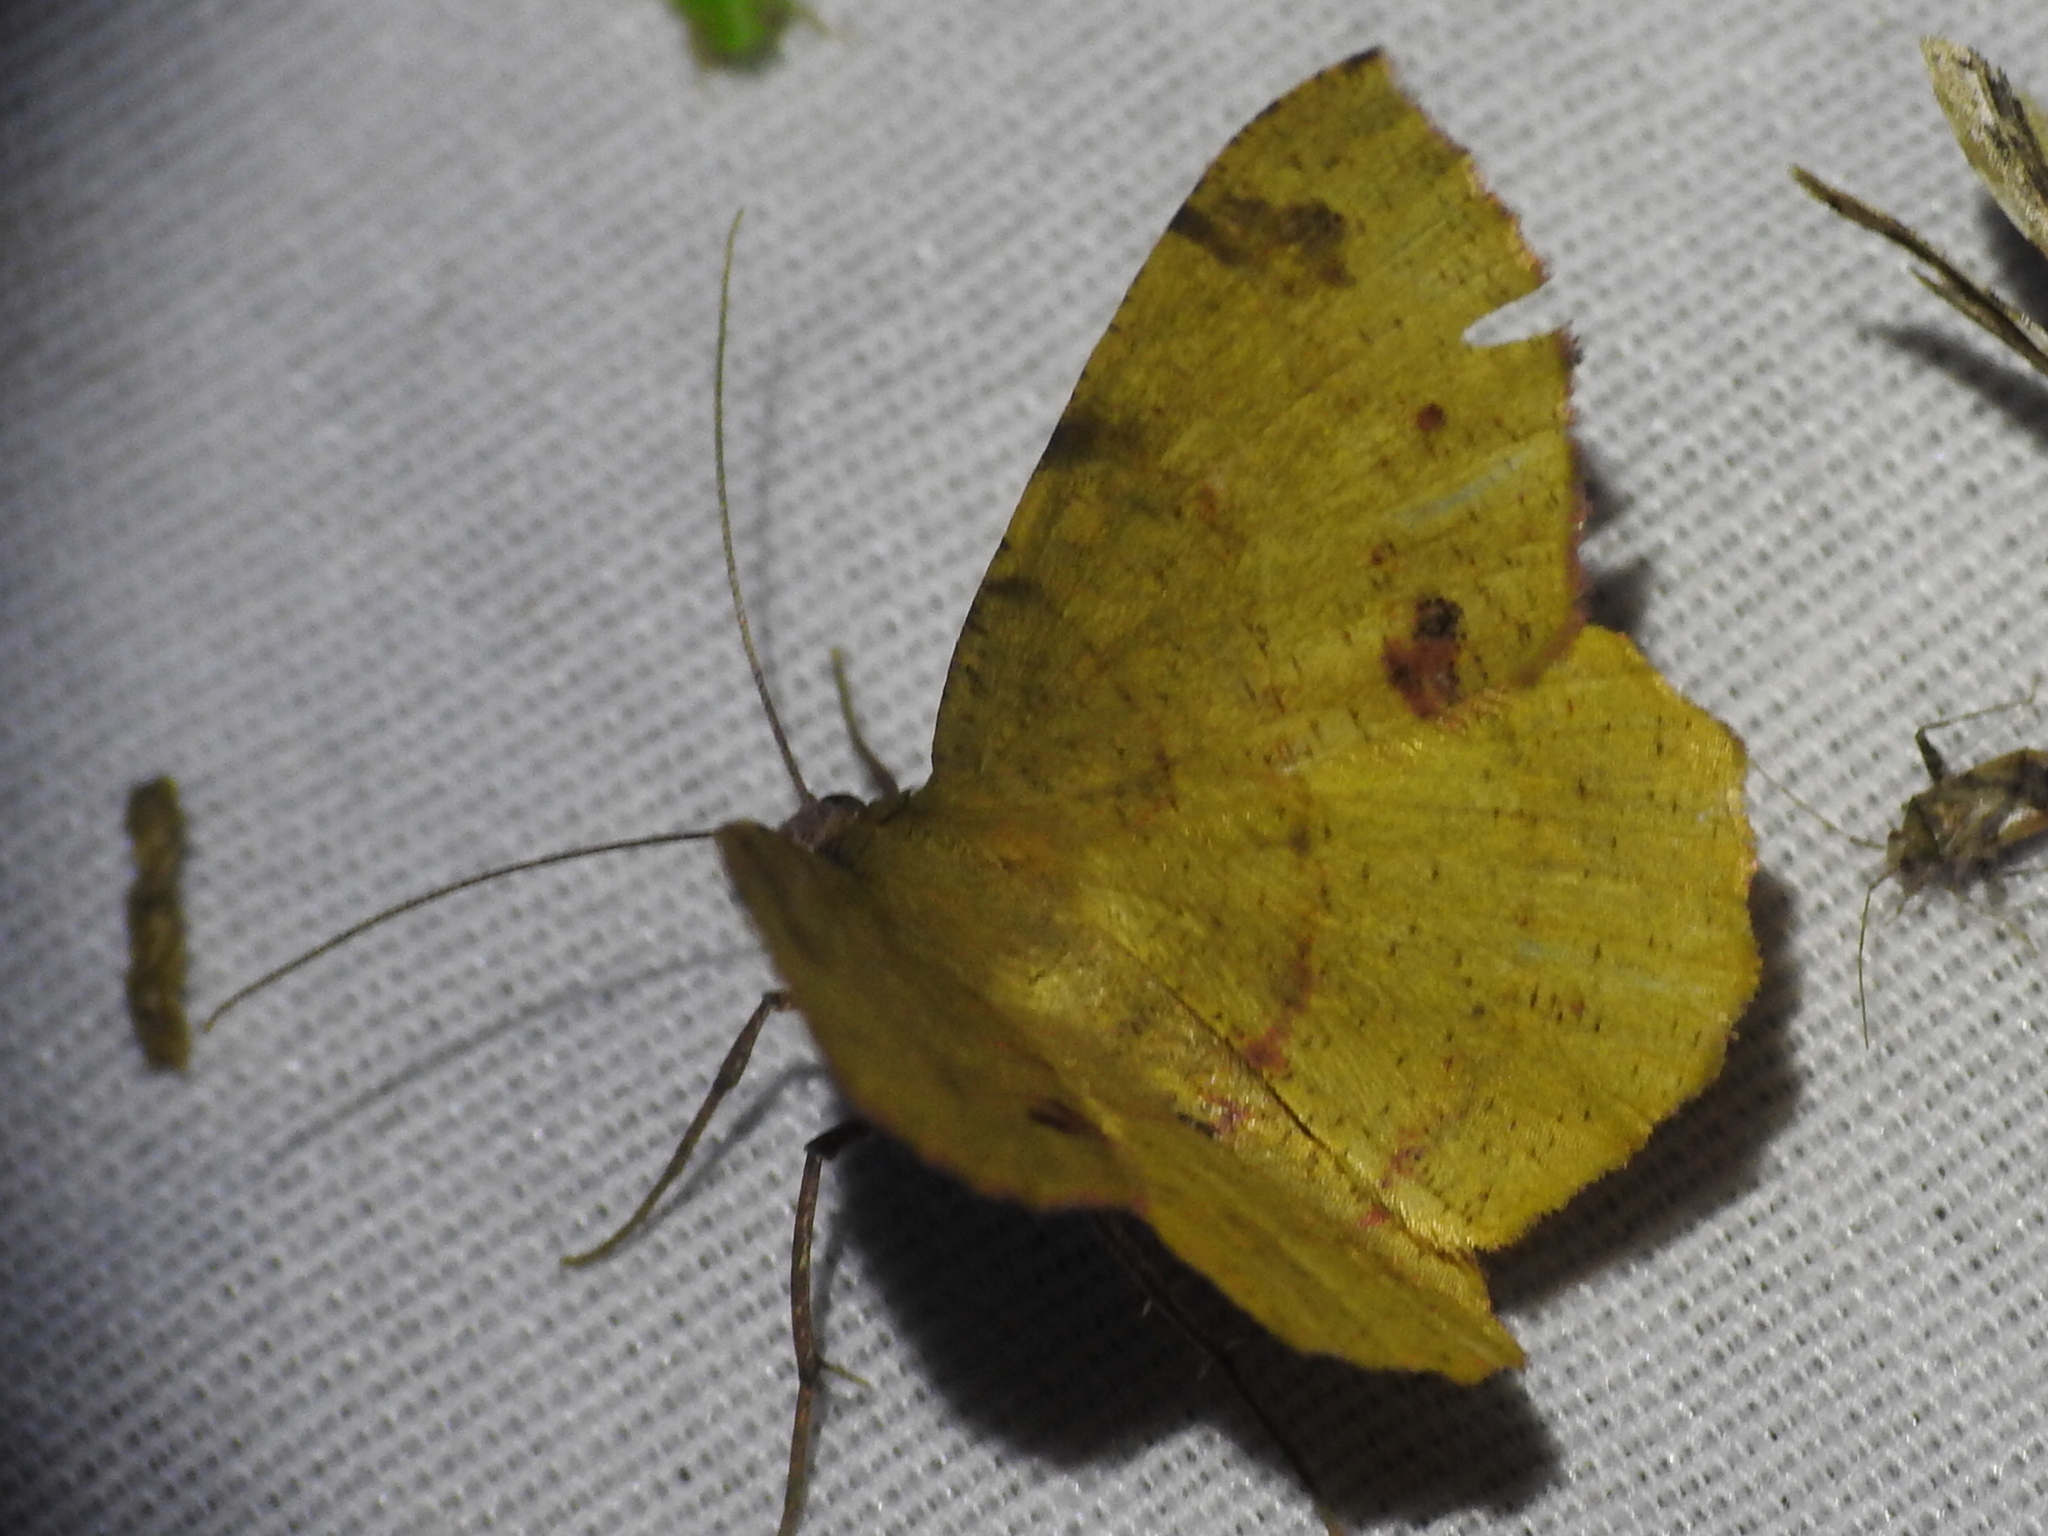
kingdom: Animalia
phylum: Arthropoda
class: Insecta
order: Lepidoptera
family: Geometridae
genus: Erastria
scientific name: Erastria decrepitaria
